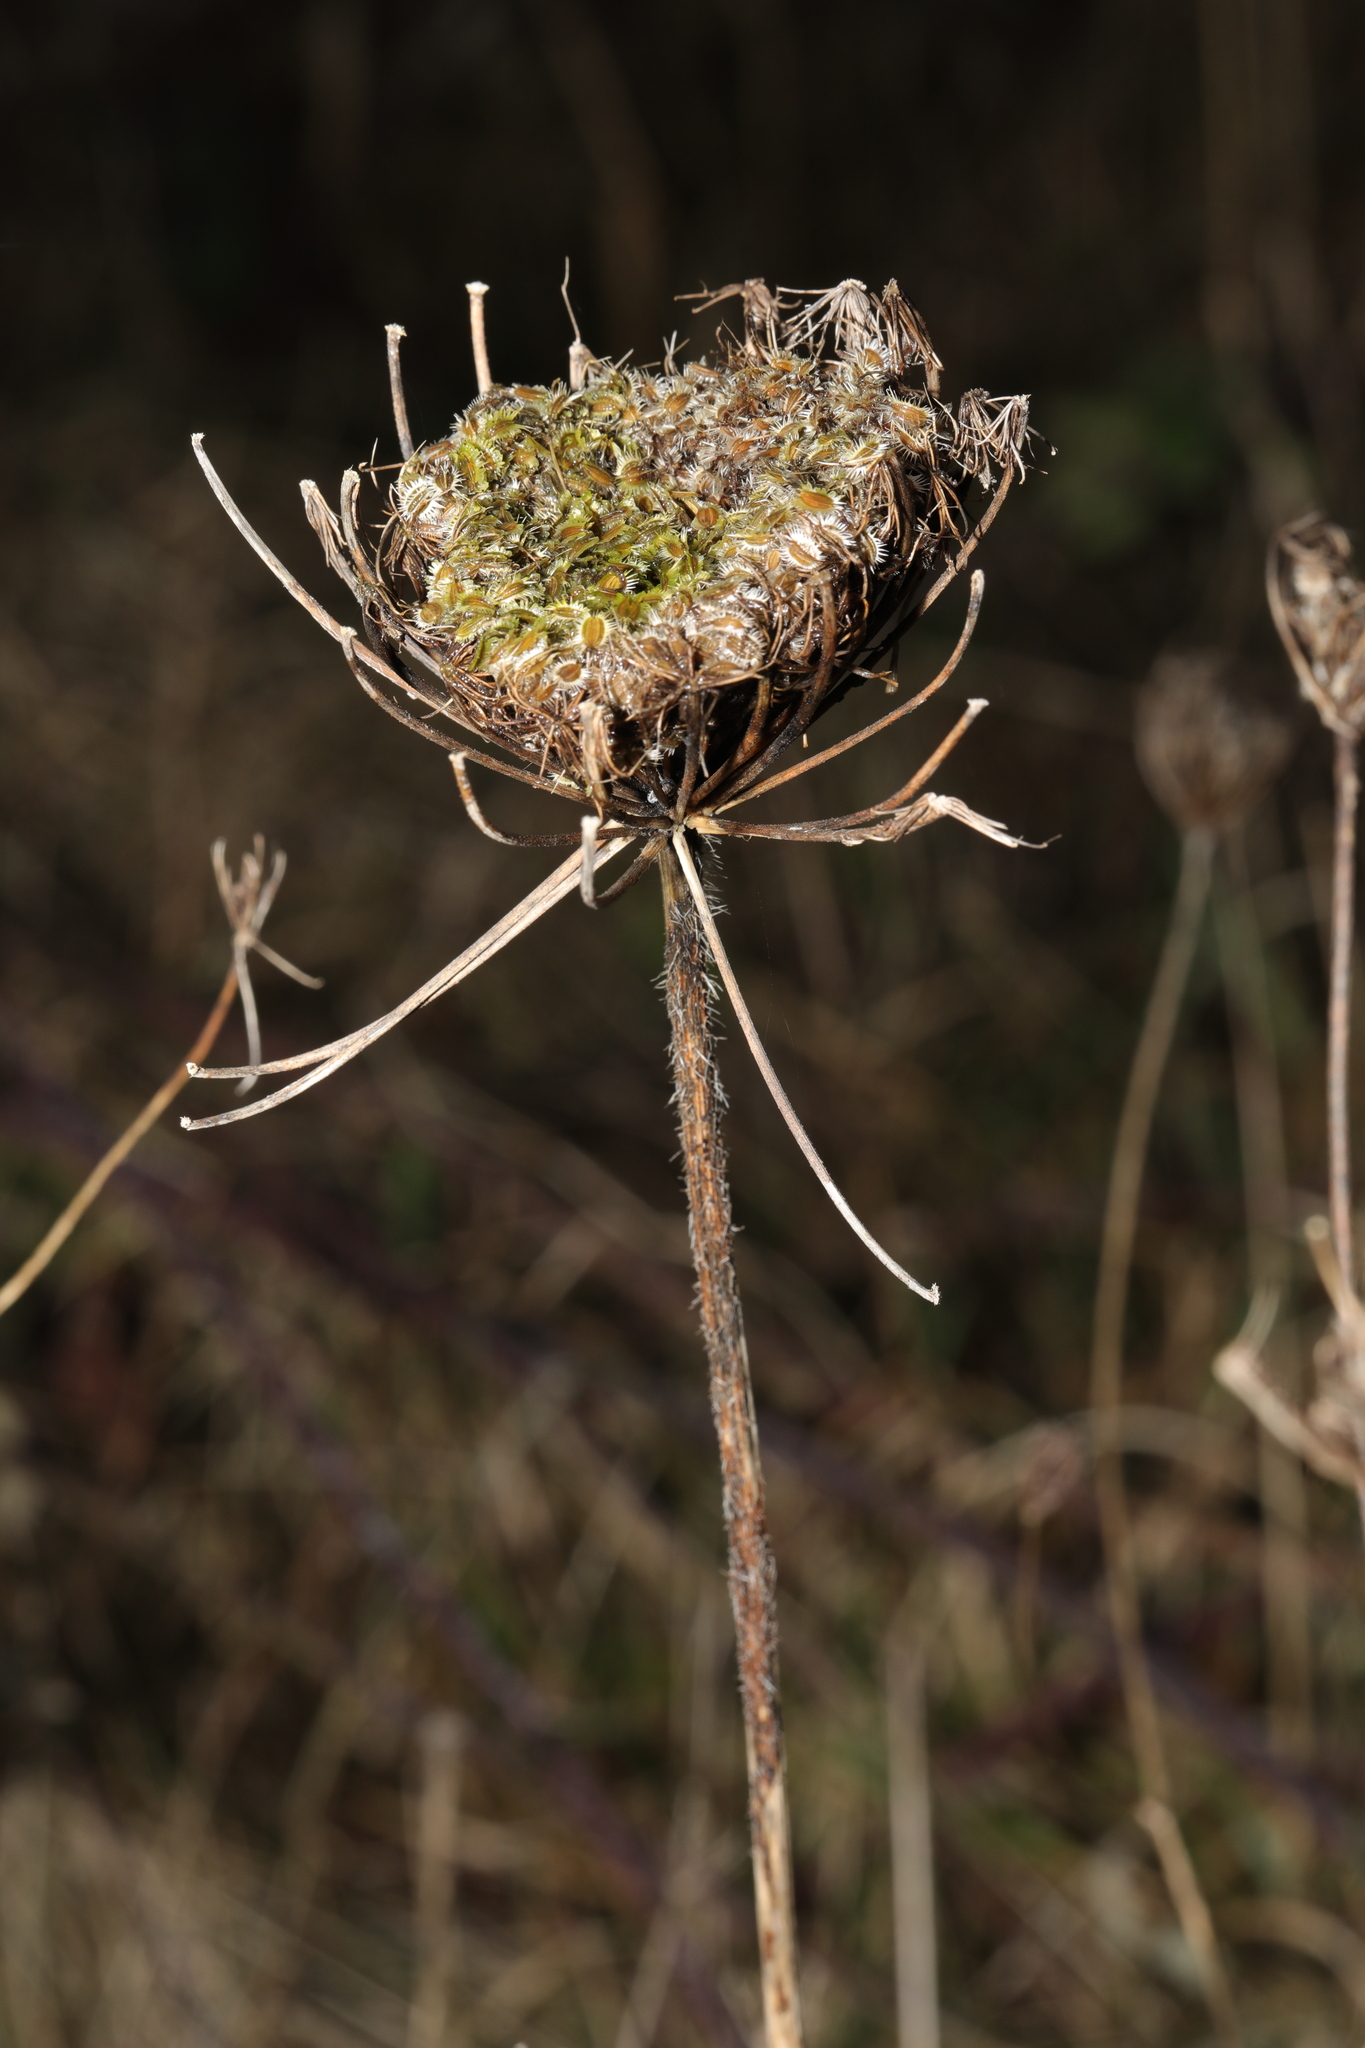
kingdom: Plantae
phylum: Tracheophyta
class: Magnoliopsida
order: Apiales
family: Apiaceae
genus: Daucus
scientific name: Daucus carota
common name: Wild carrot
